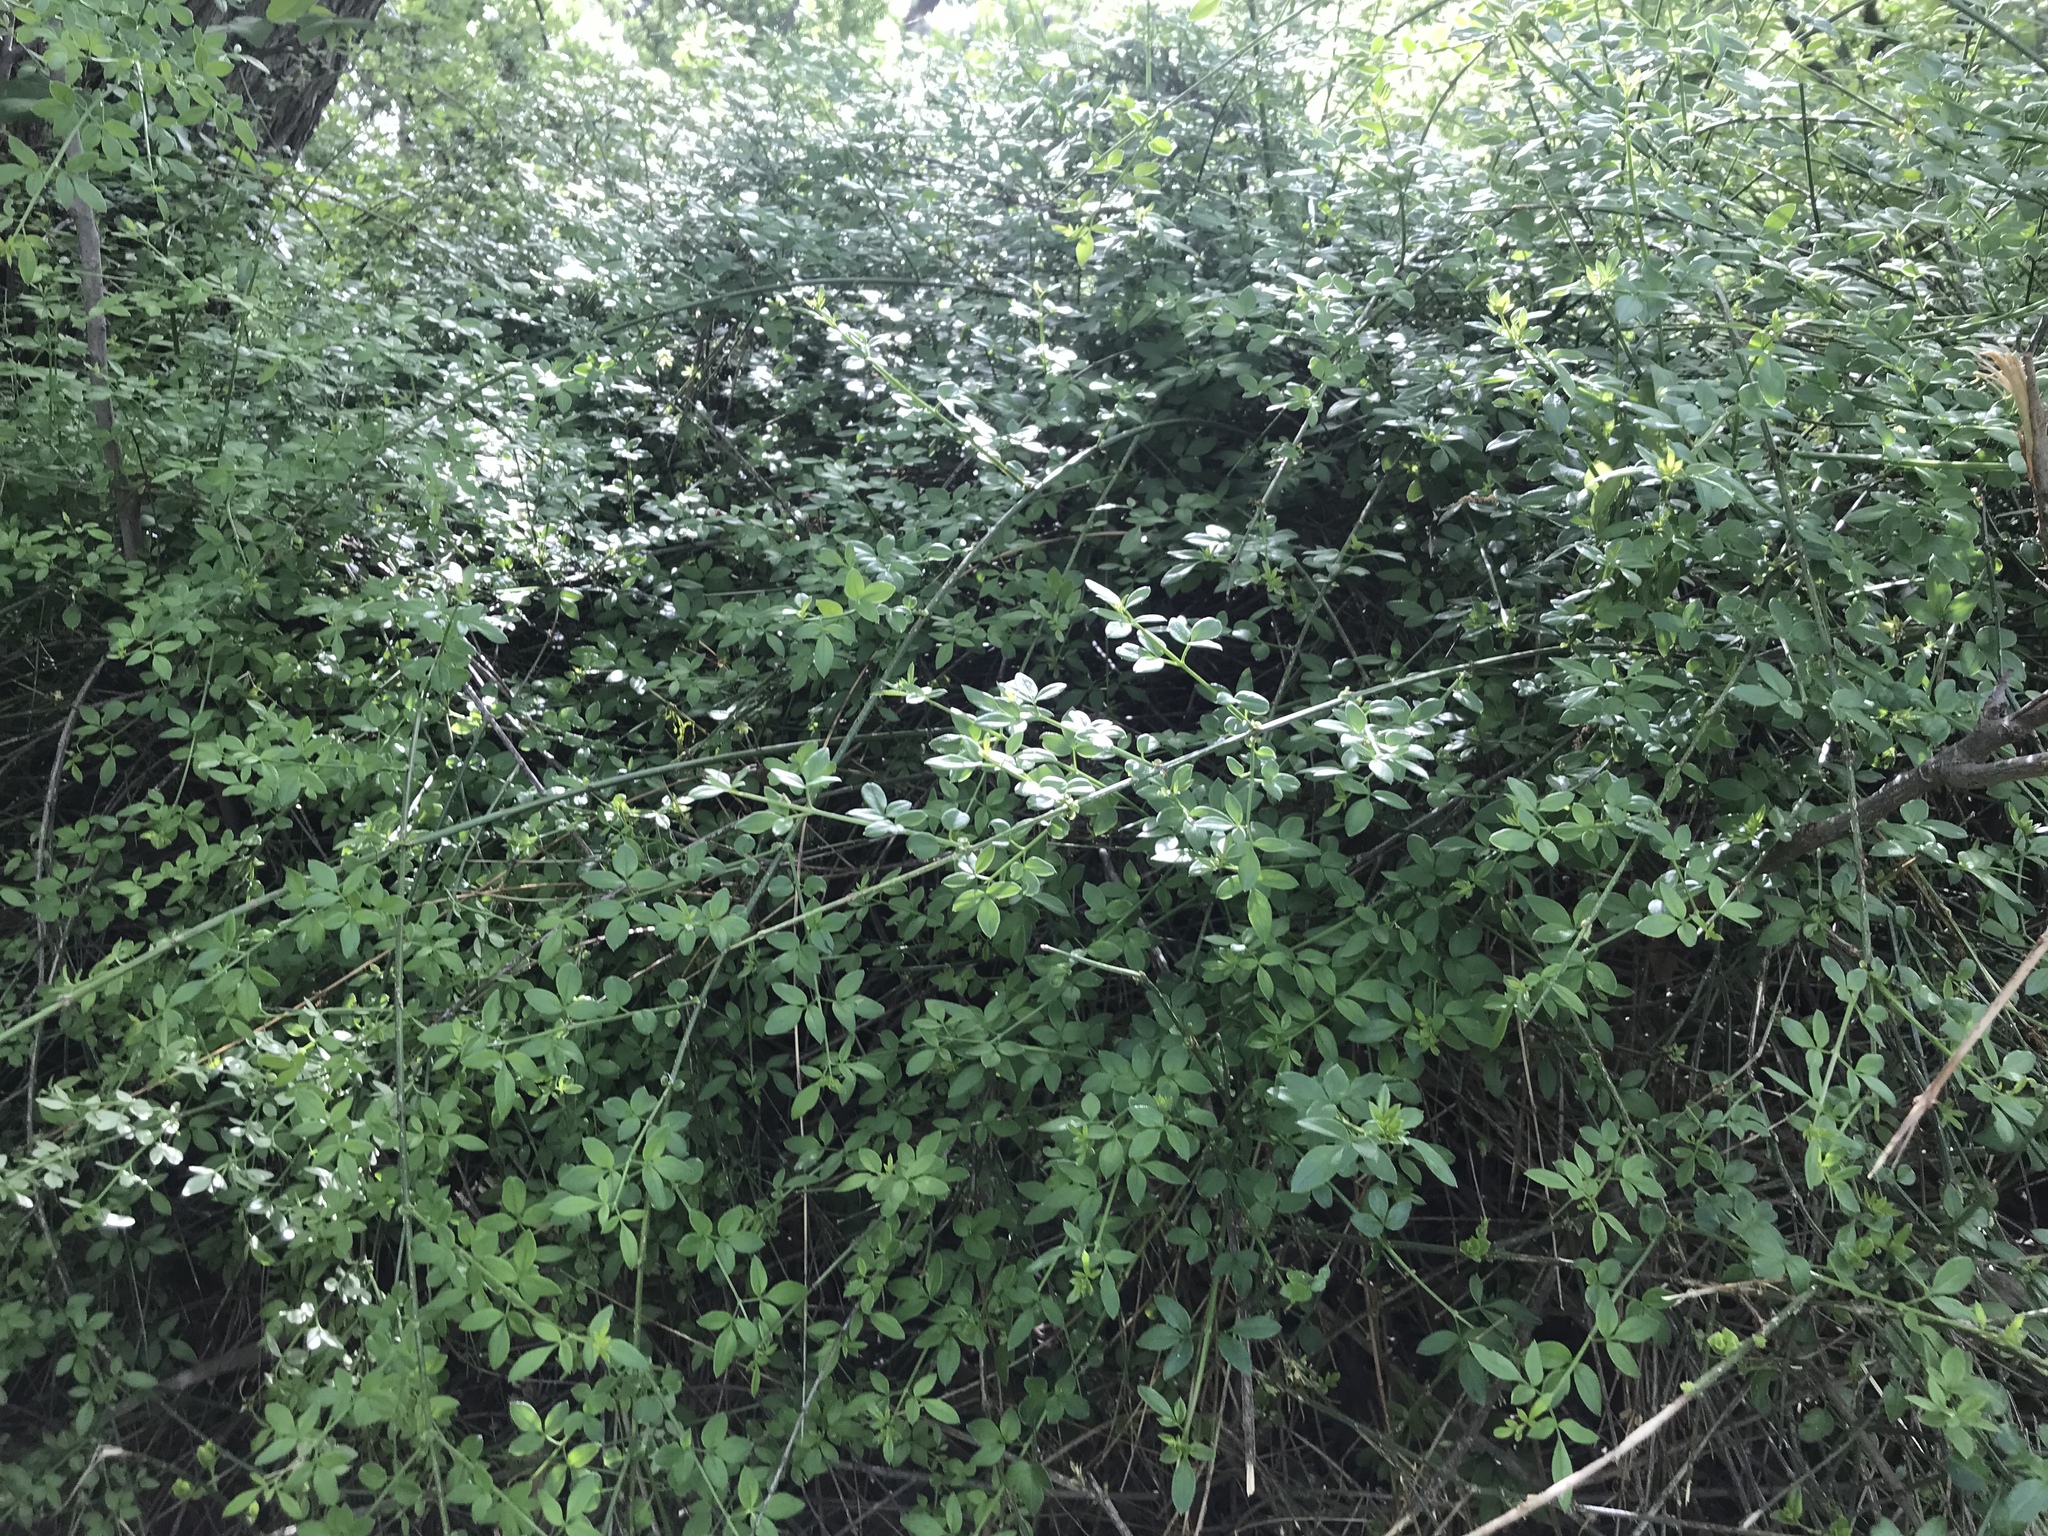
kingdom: Plantae
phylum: Tracheophyta
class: Magnoliopsida
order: Lamiales
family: Oleaceae
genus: Jasminum
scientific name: Jasminum mesnyi
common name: Japanese jasmine
